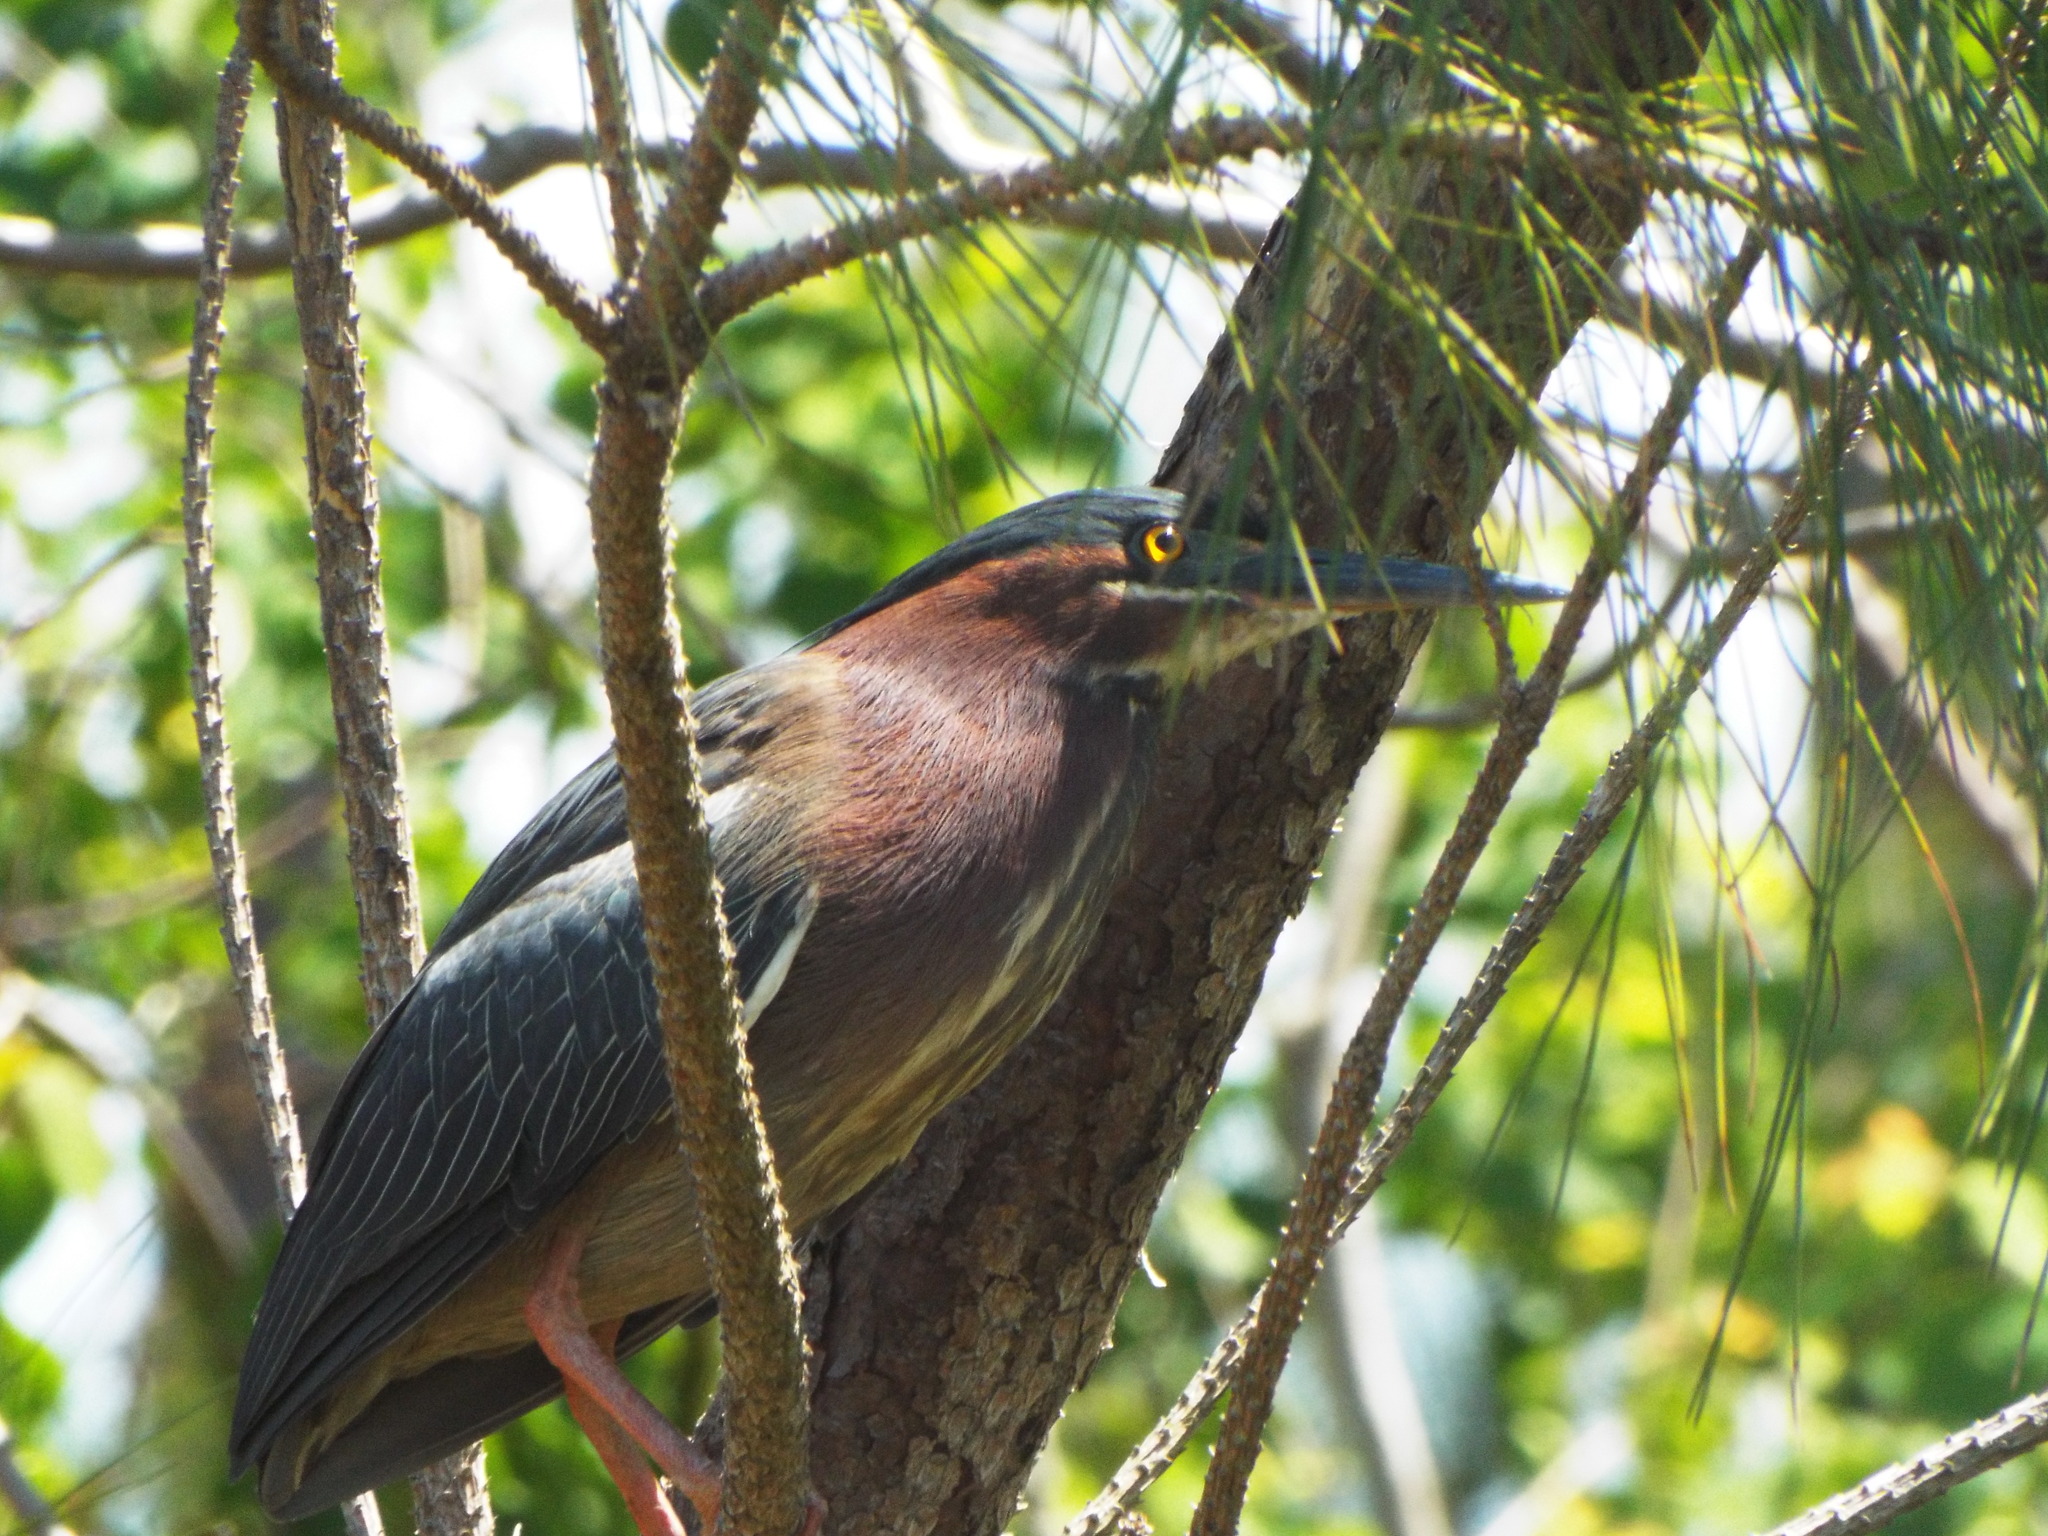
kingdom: Animalia
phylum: Chordata
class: Aves
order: Pelecaniformes
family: Ardeidae
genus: Butorides
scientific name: Butorides virescens
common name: Green heron
